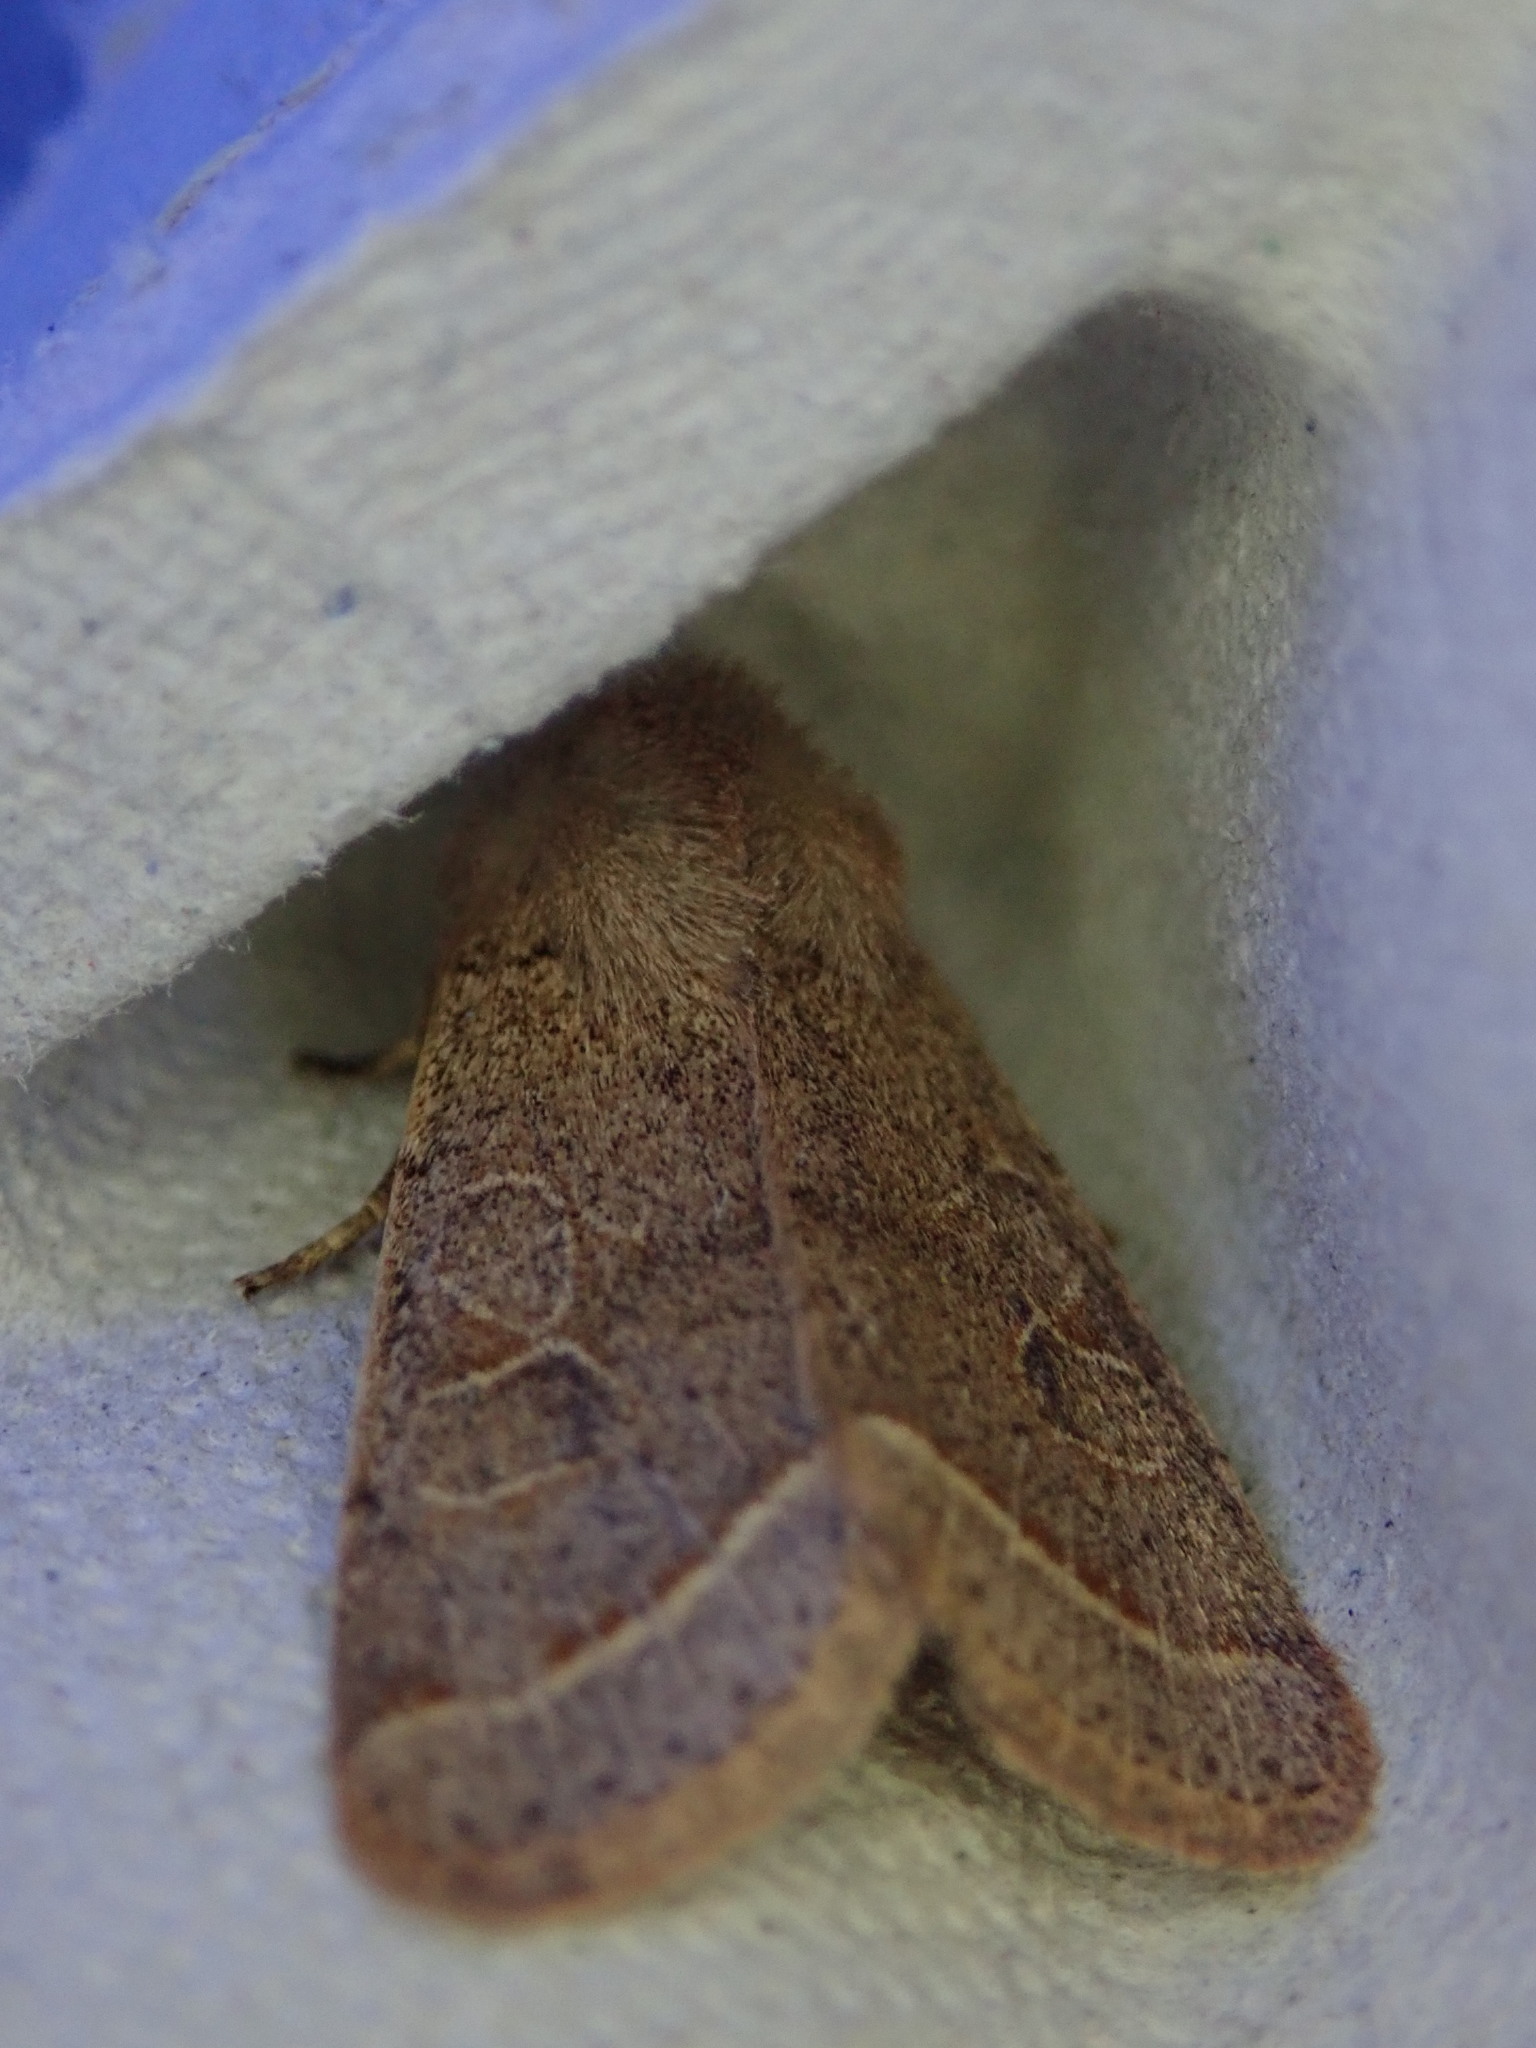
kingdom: Animalia
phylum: Arthropoda
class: Insecta
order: Lepidoptera
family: Noctuidae
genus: Orthosia
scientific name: Orthosia cerasi
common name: Common quaker
